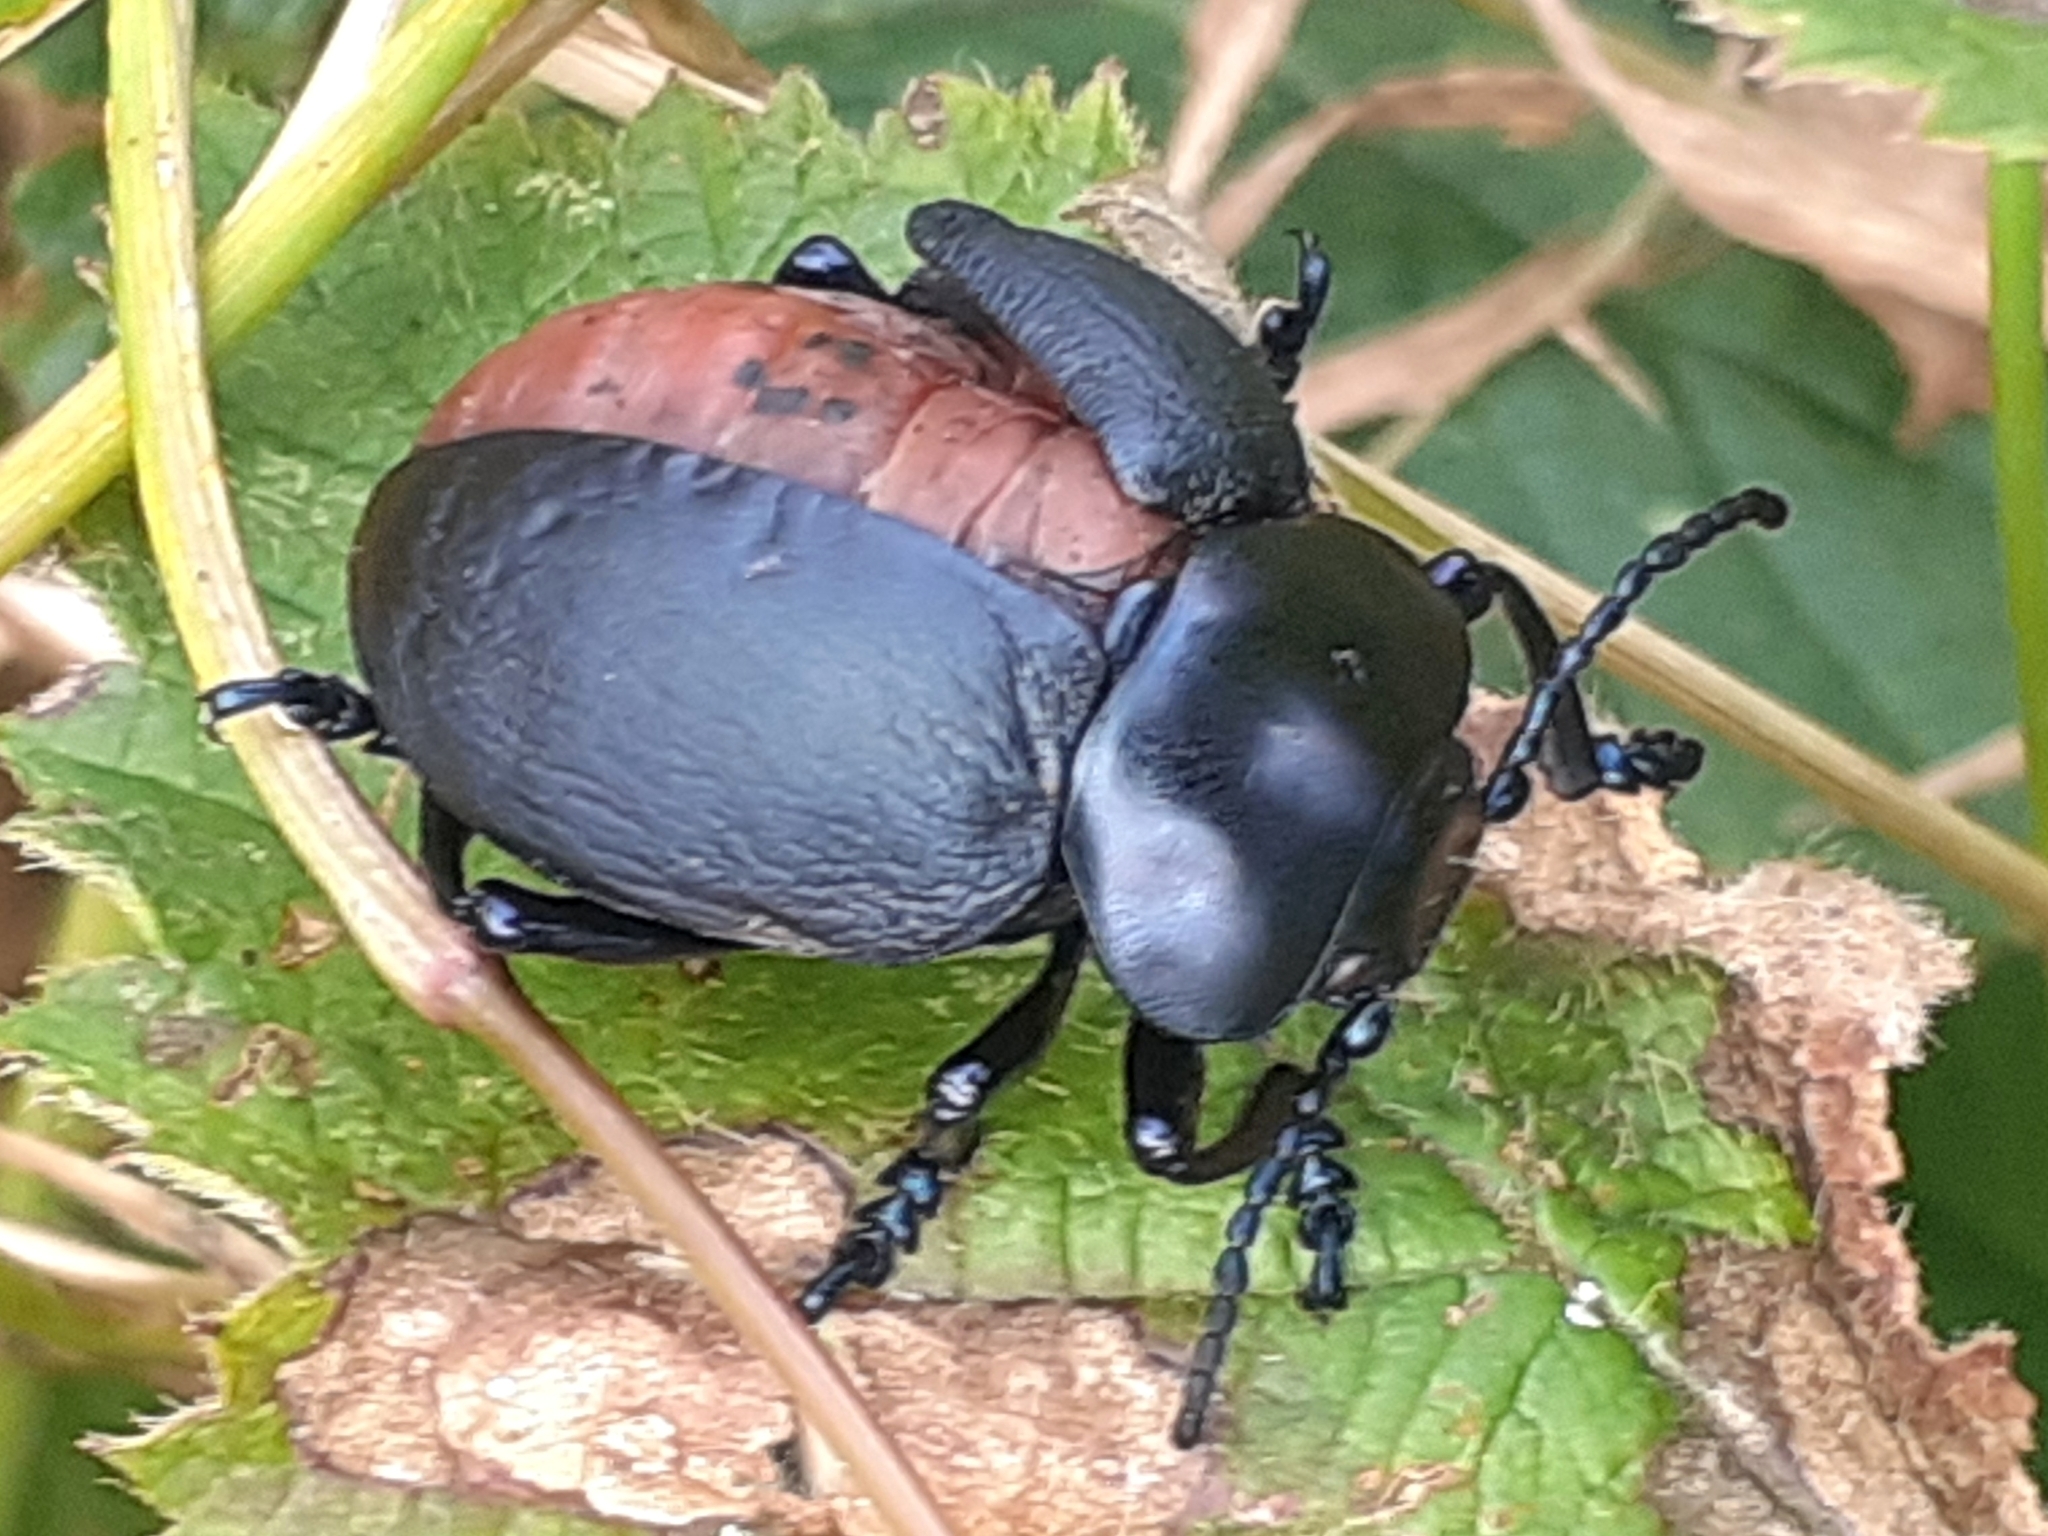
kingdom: Animalia
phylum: Arthropoda
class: Insecta
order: Coleoptera
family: Chrysomelidae
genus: Timarcha
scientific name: Timarcha tenebricosa
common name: Bloody-nosed beetle
